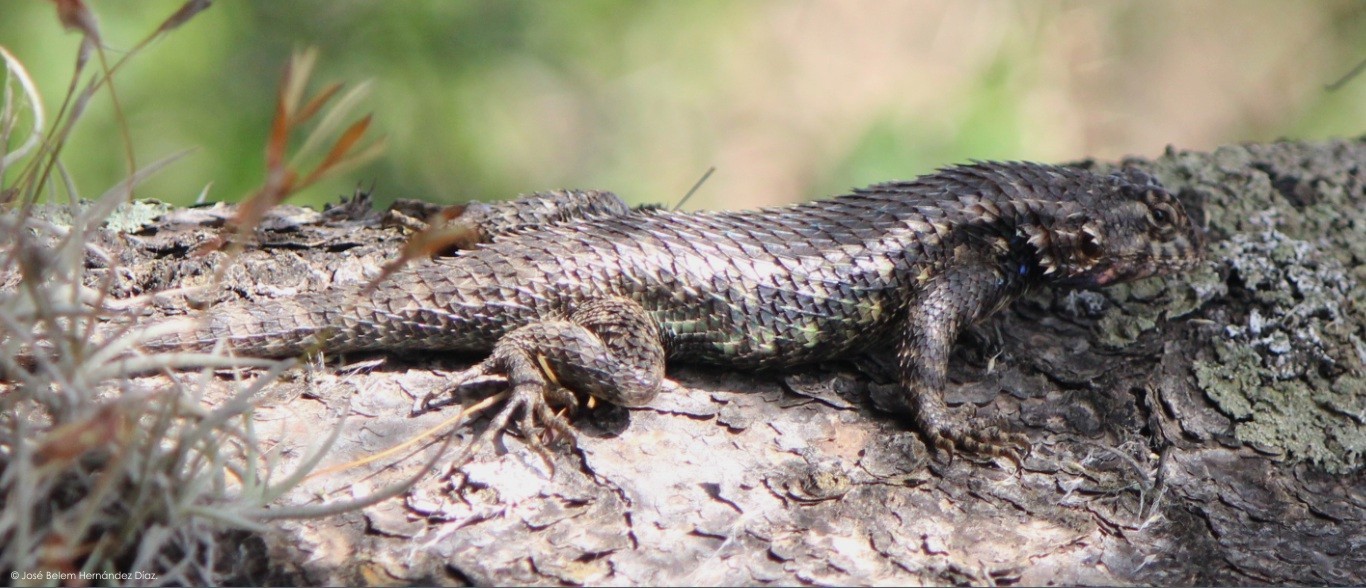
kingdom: Animalia
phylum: Chordata
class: Squamata
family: Phrynosomatidae
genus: Sceloporus
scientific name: Sceloporus spinosus
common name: Blue-spotted spiny lizard [caeruleopunctatus]
